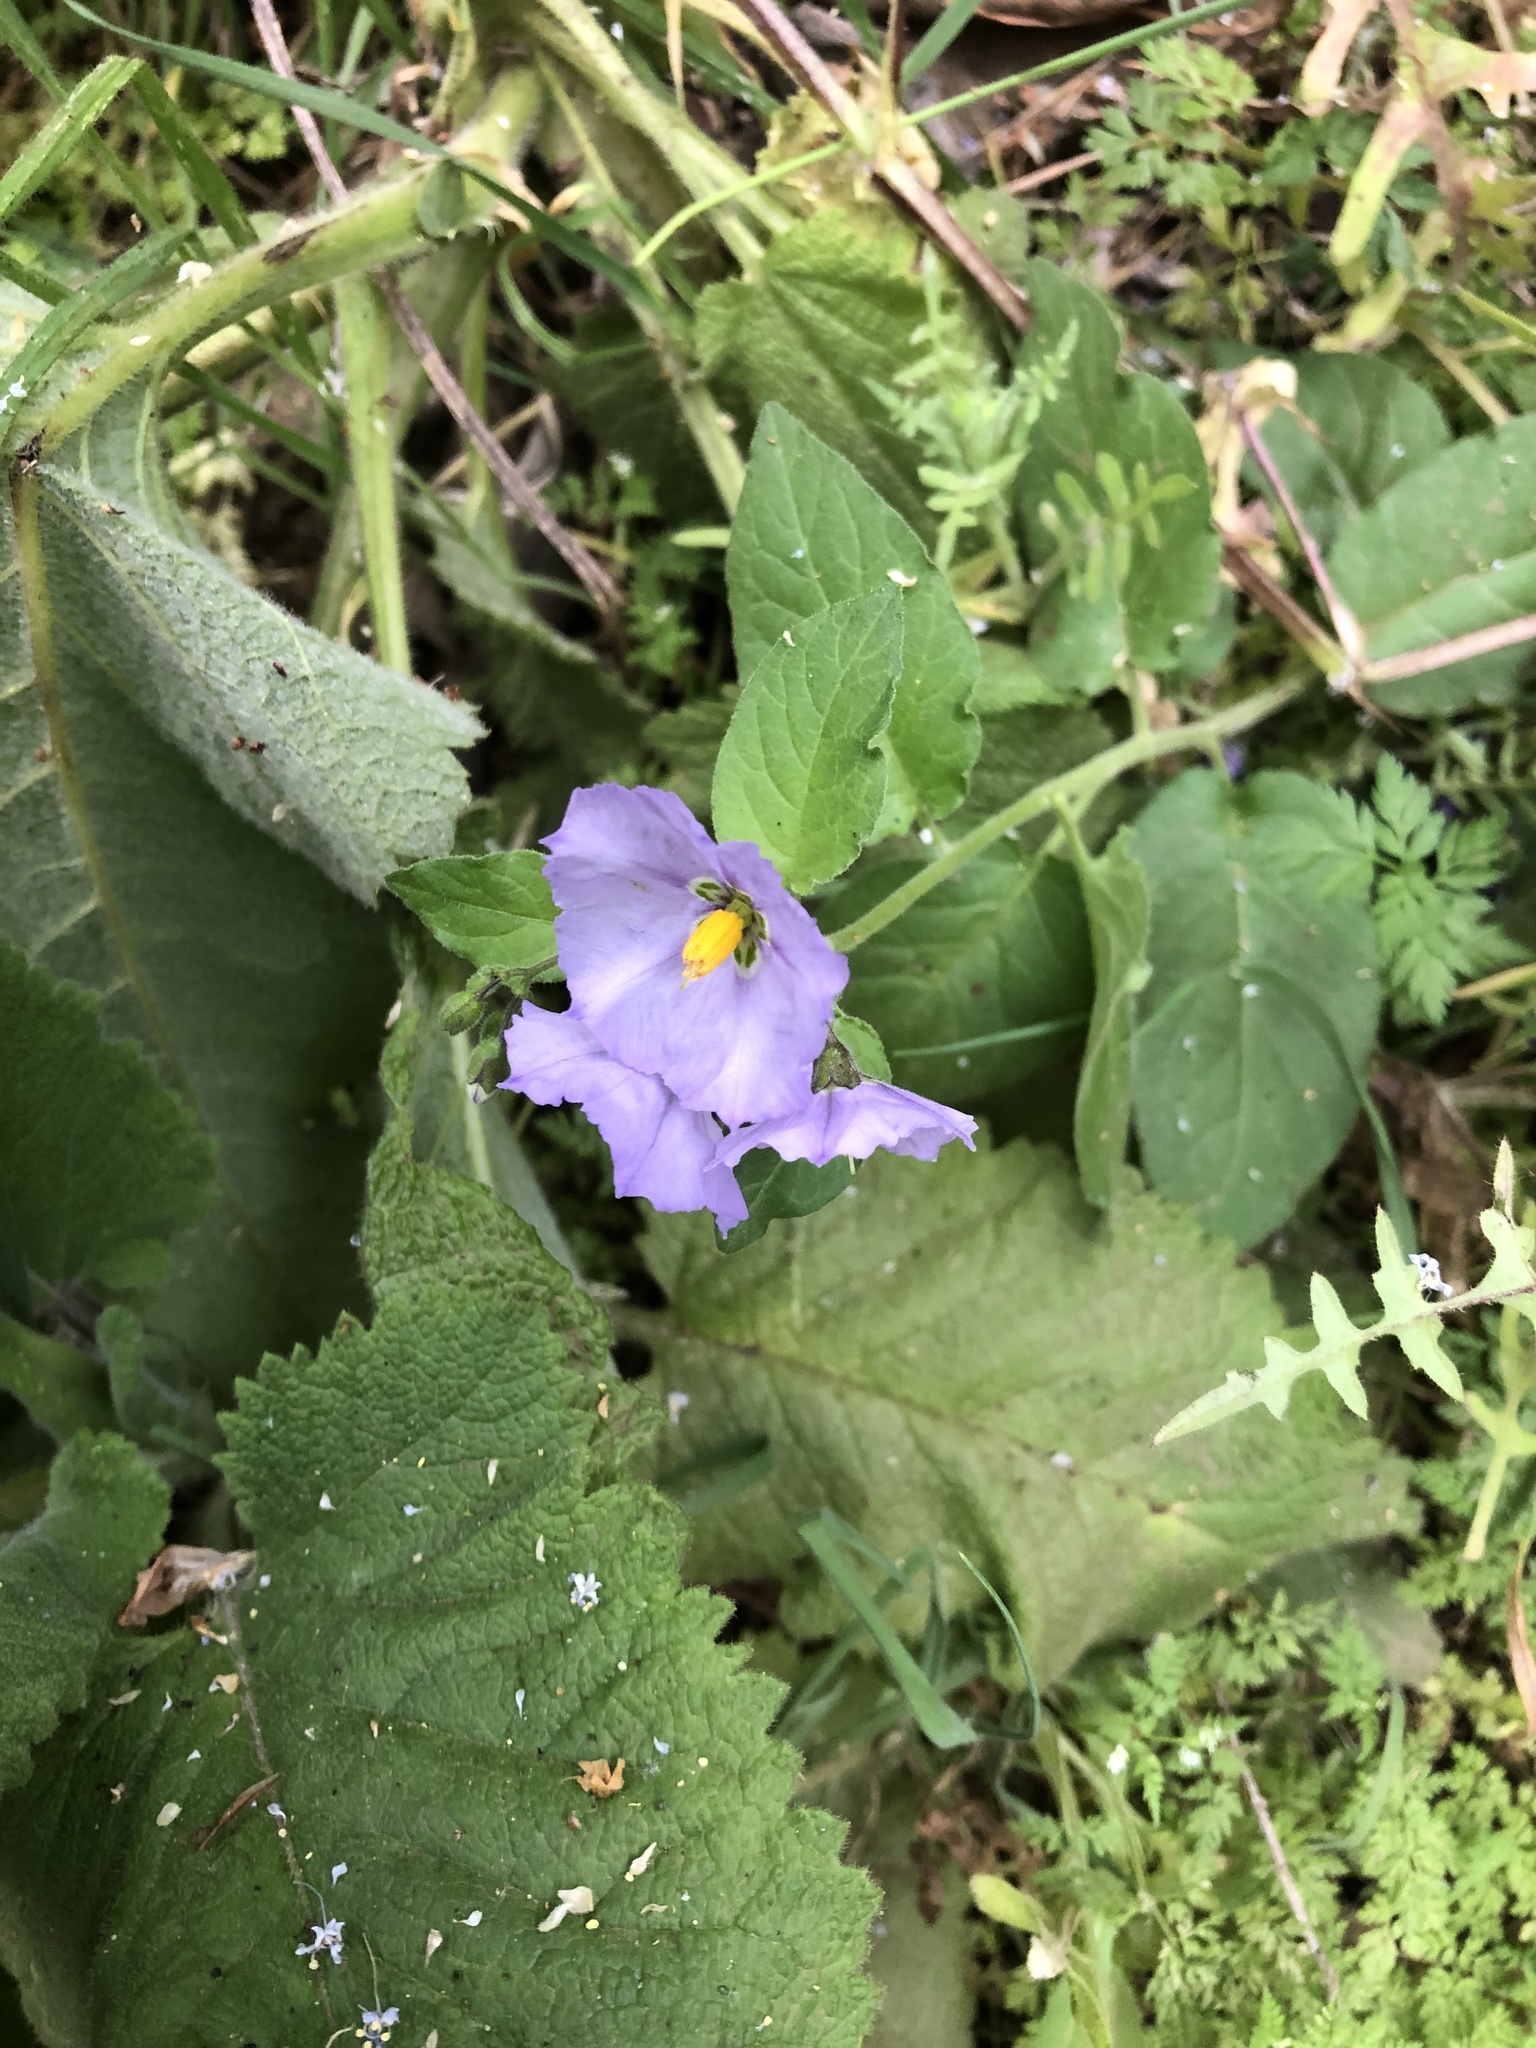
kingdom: Plantae
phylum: Tracheophyta
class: Magnoliopsida
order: Solanales
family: Solanaceae
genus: Solanum
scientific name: Solanum umbelliferum
